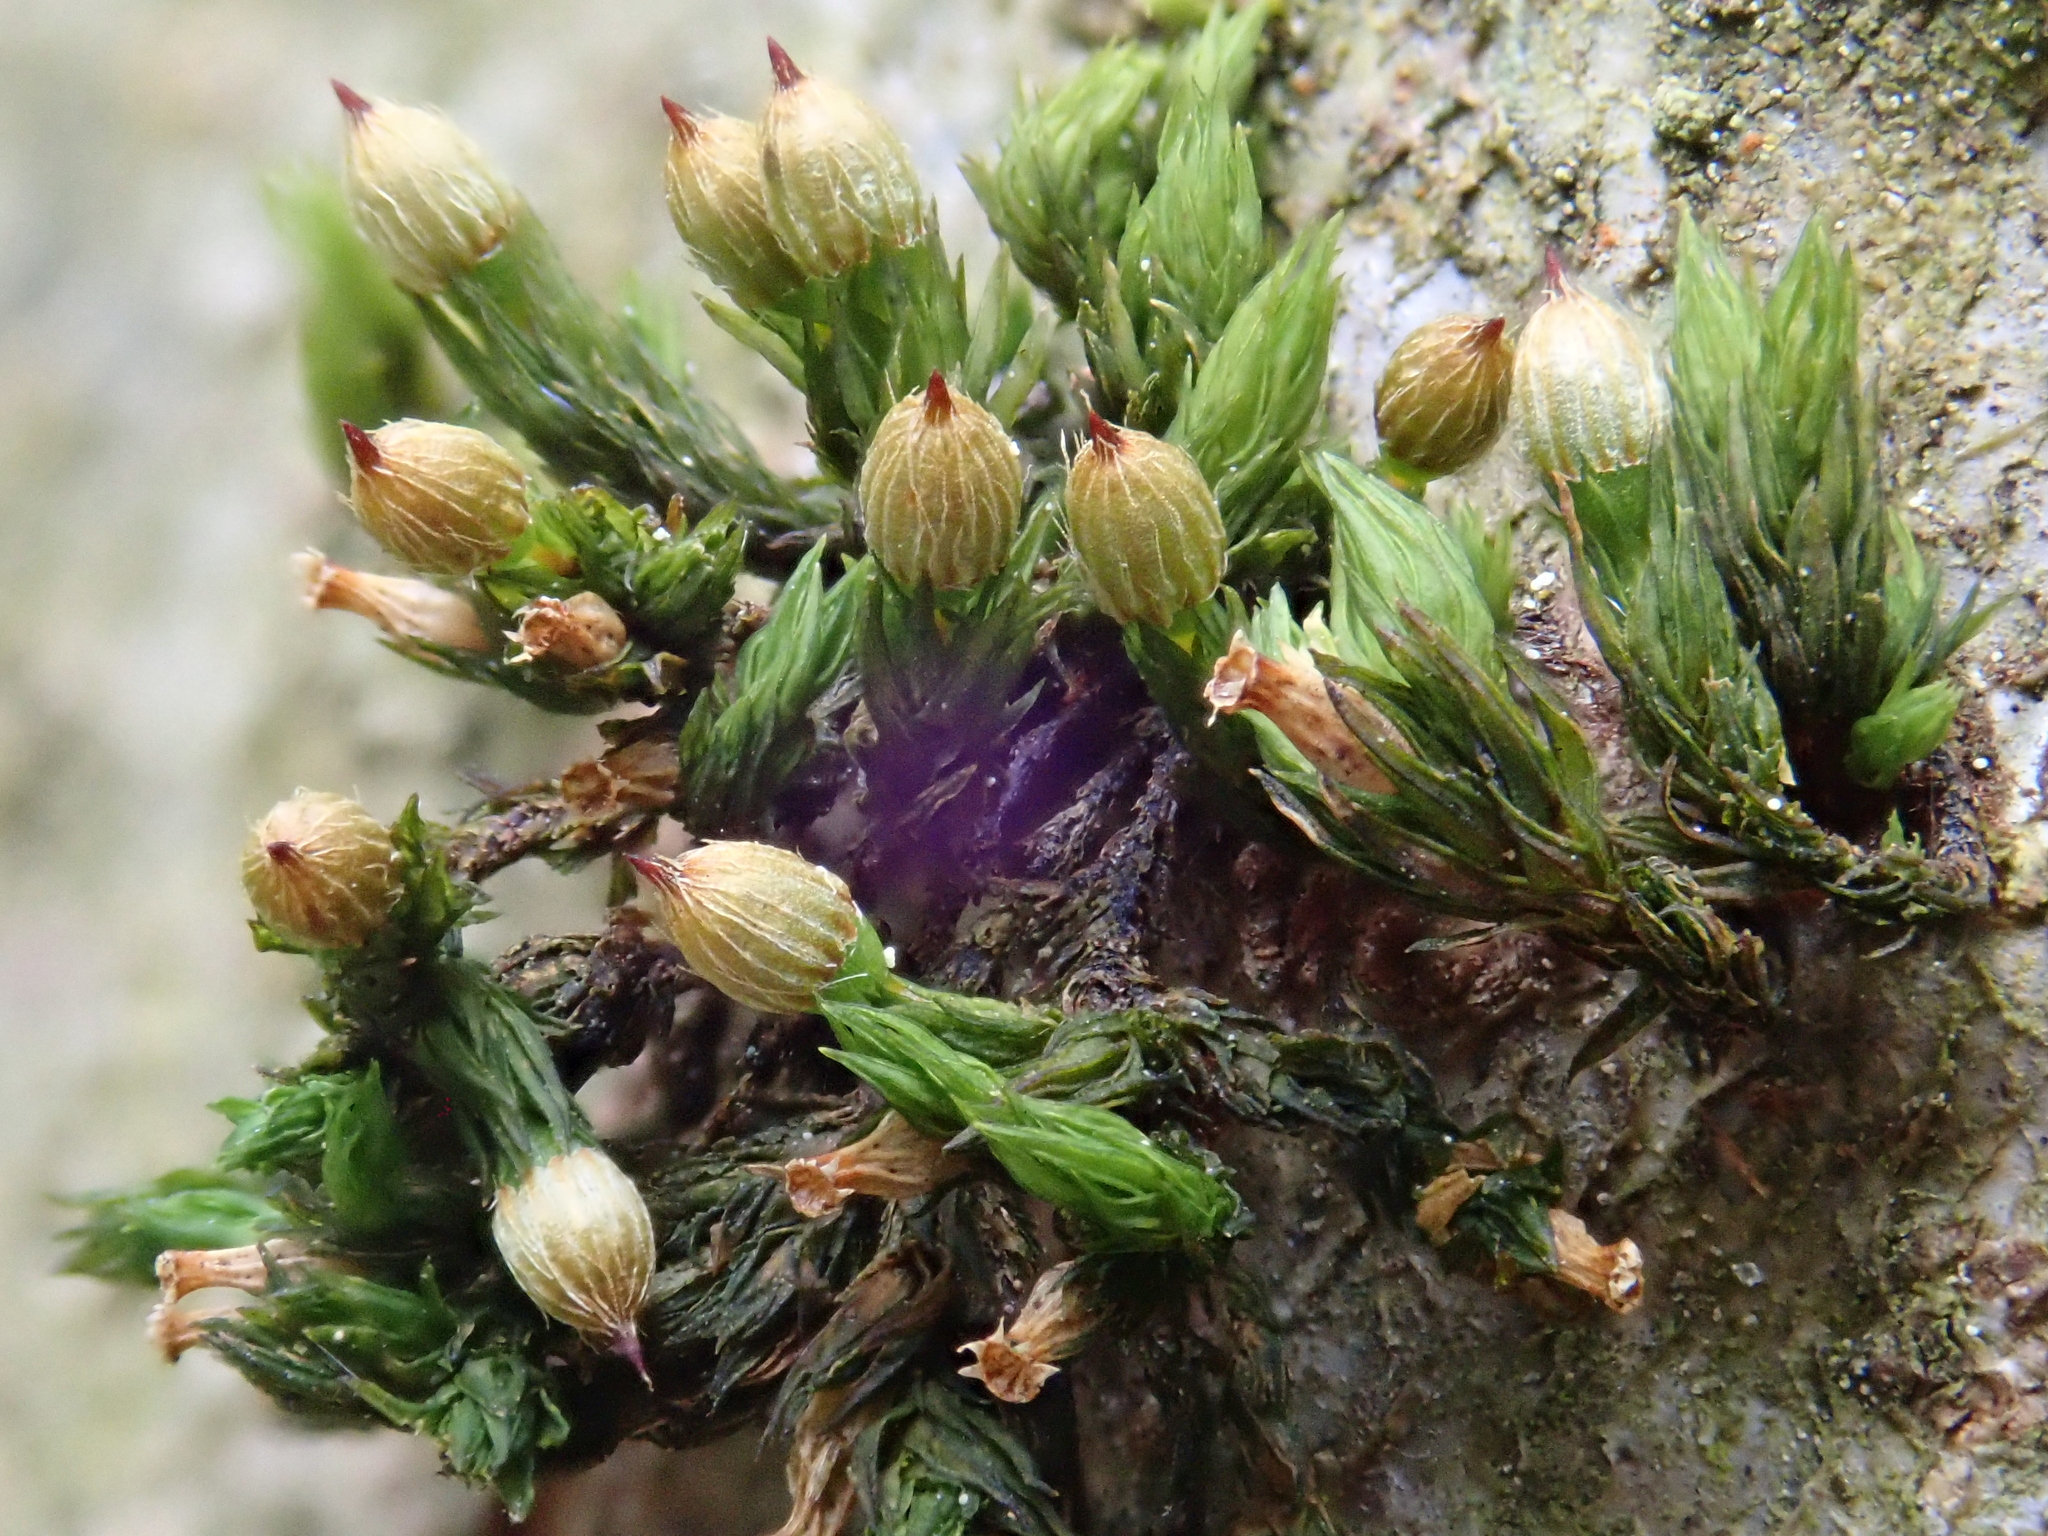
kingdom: Plantae
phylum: Bryophyta
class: Bryopsida
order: Orthotrichales
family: Orthotrichaceae
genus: Orthotrichum
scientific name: Orthotrichum patens
